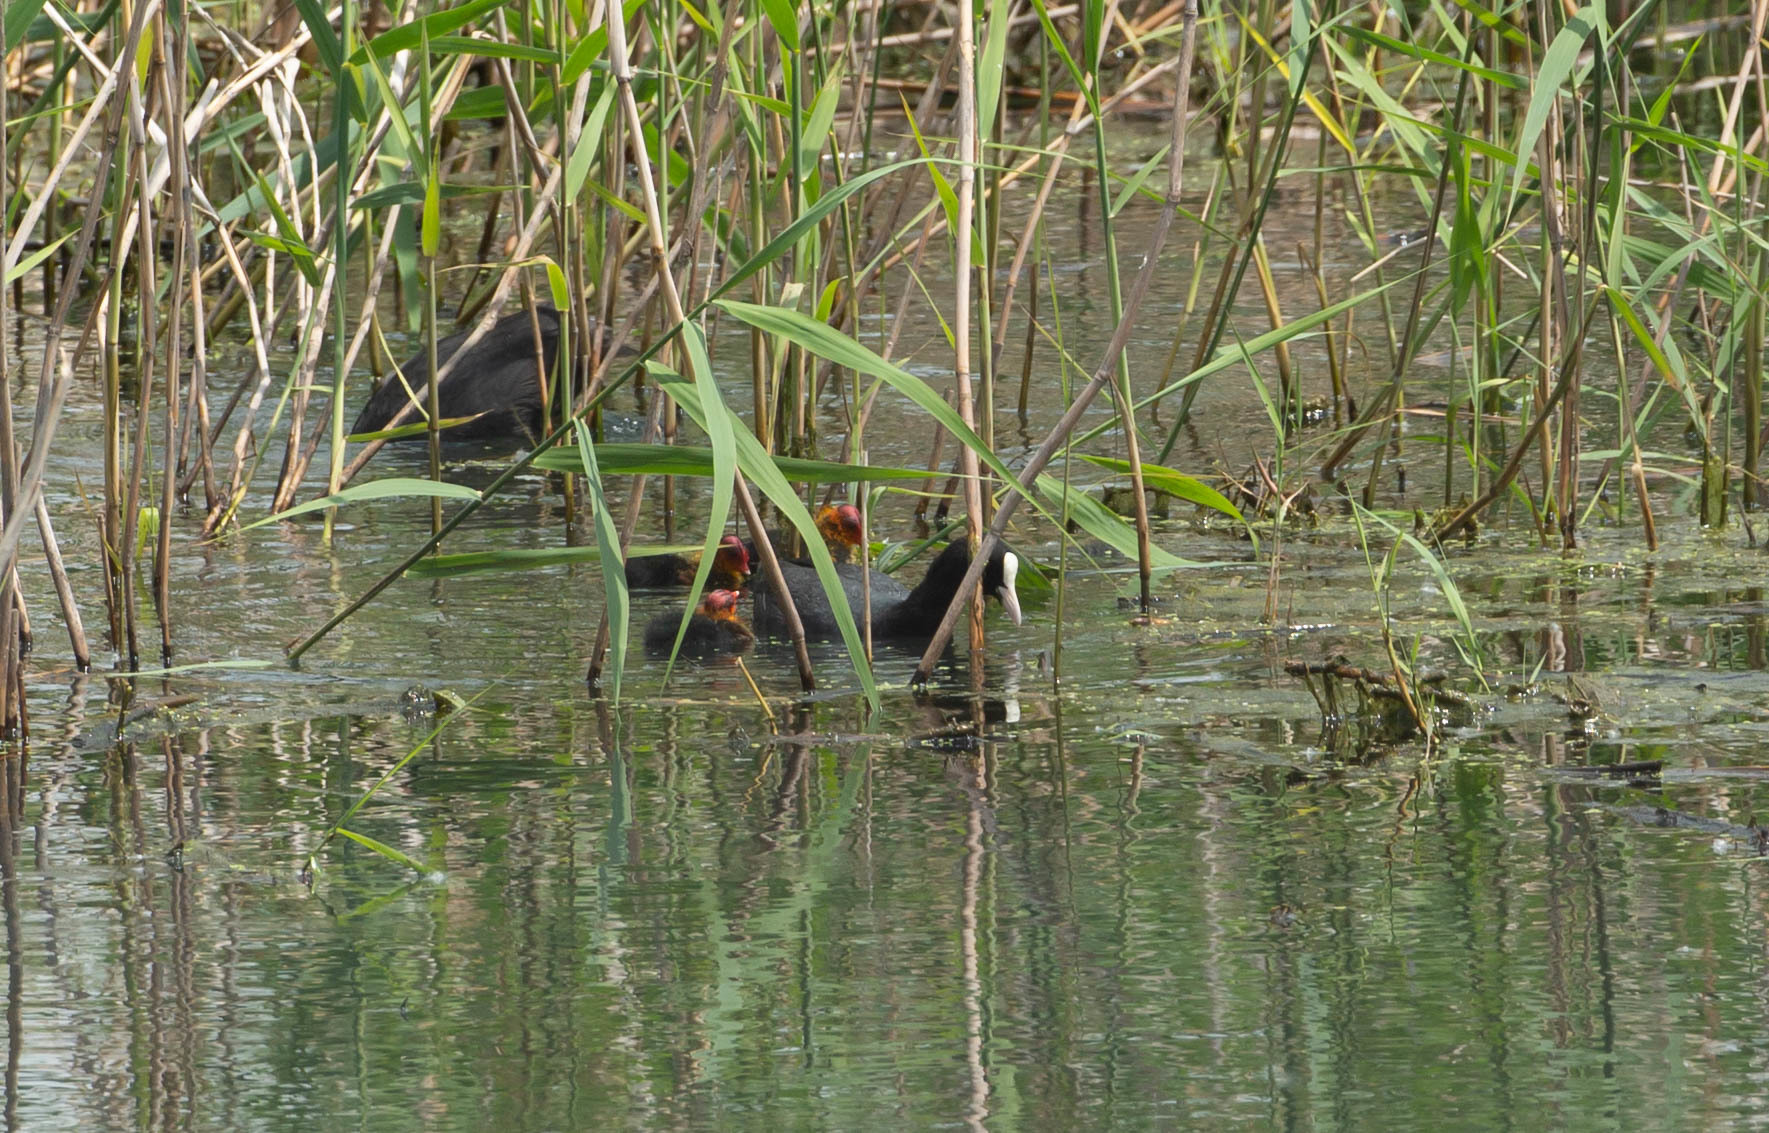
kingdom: Animalia
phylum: Chordata
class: Aves
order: Gruiformes
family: Rallidae
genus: Fulica
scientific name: Fulica atra
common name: Eurasian coot
